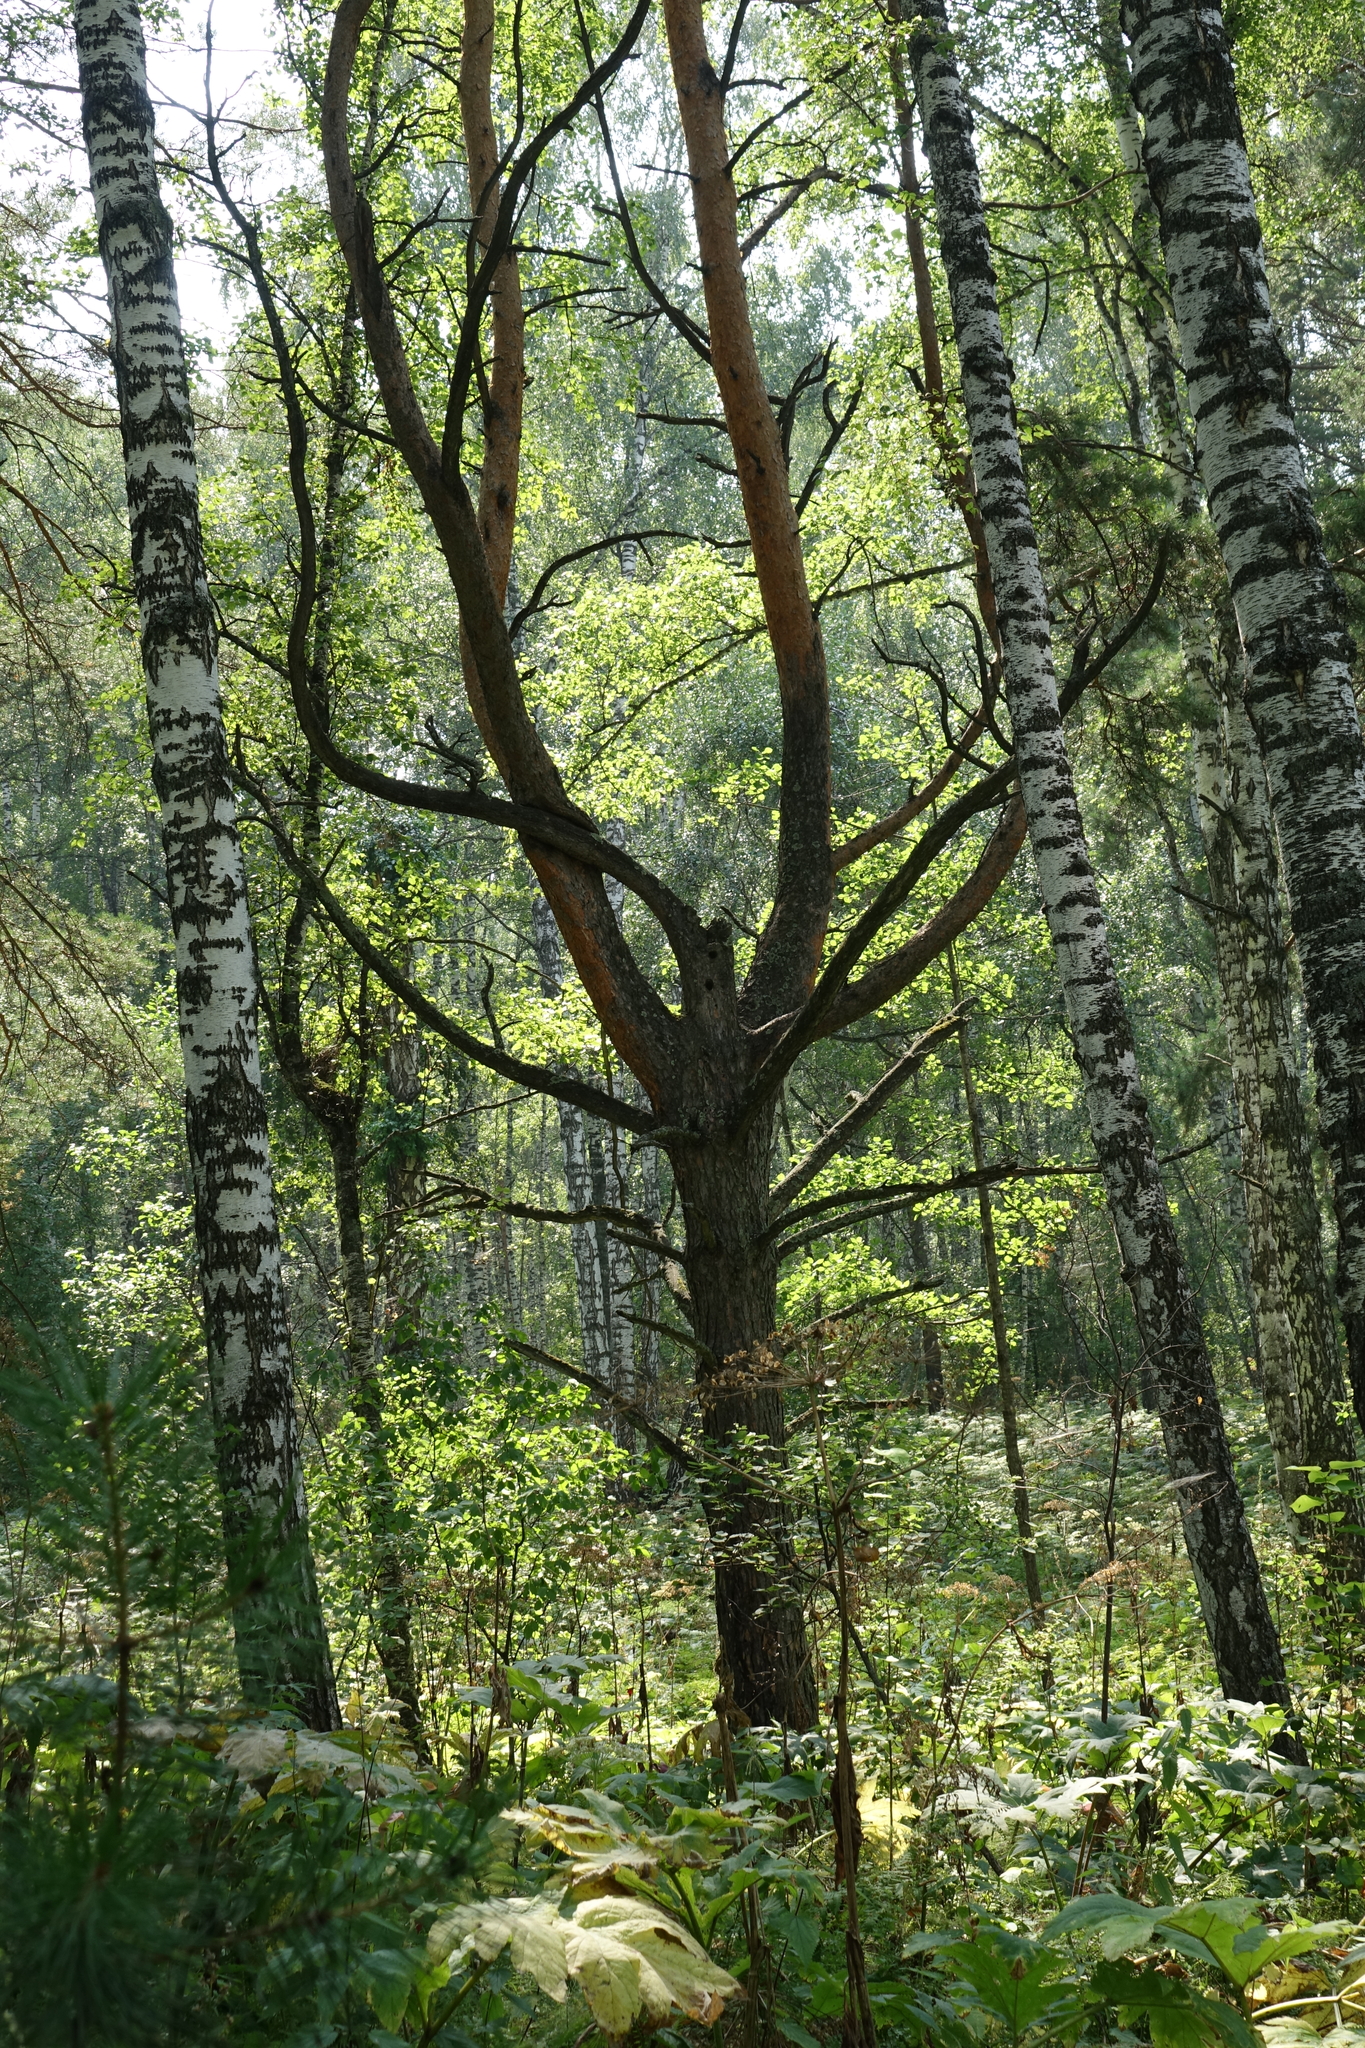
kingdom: Plantae
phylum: Tracheophyta
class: Pinopsida
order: Pinales
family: Pinaceae
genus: Pinus
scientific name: Pinus sylvestris
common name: Scots pine
